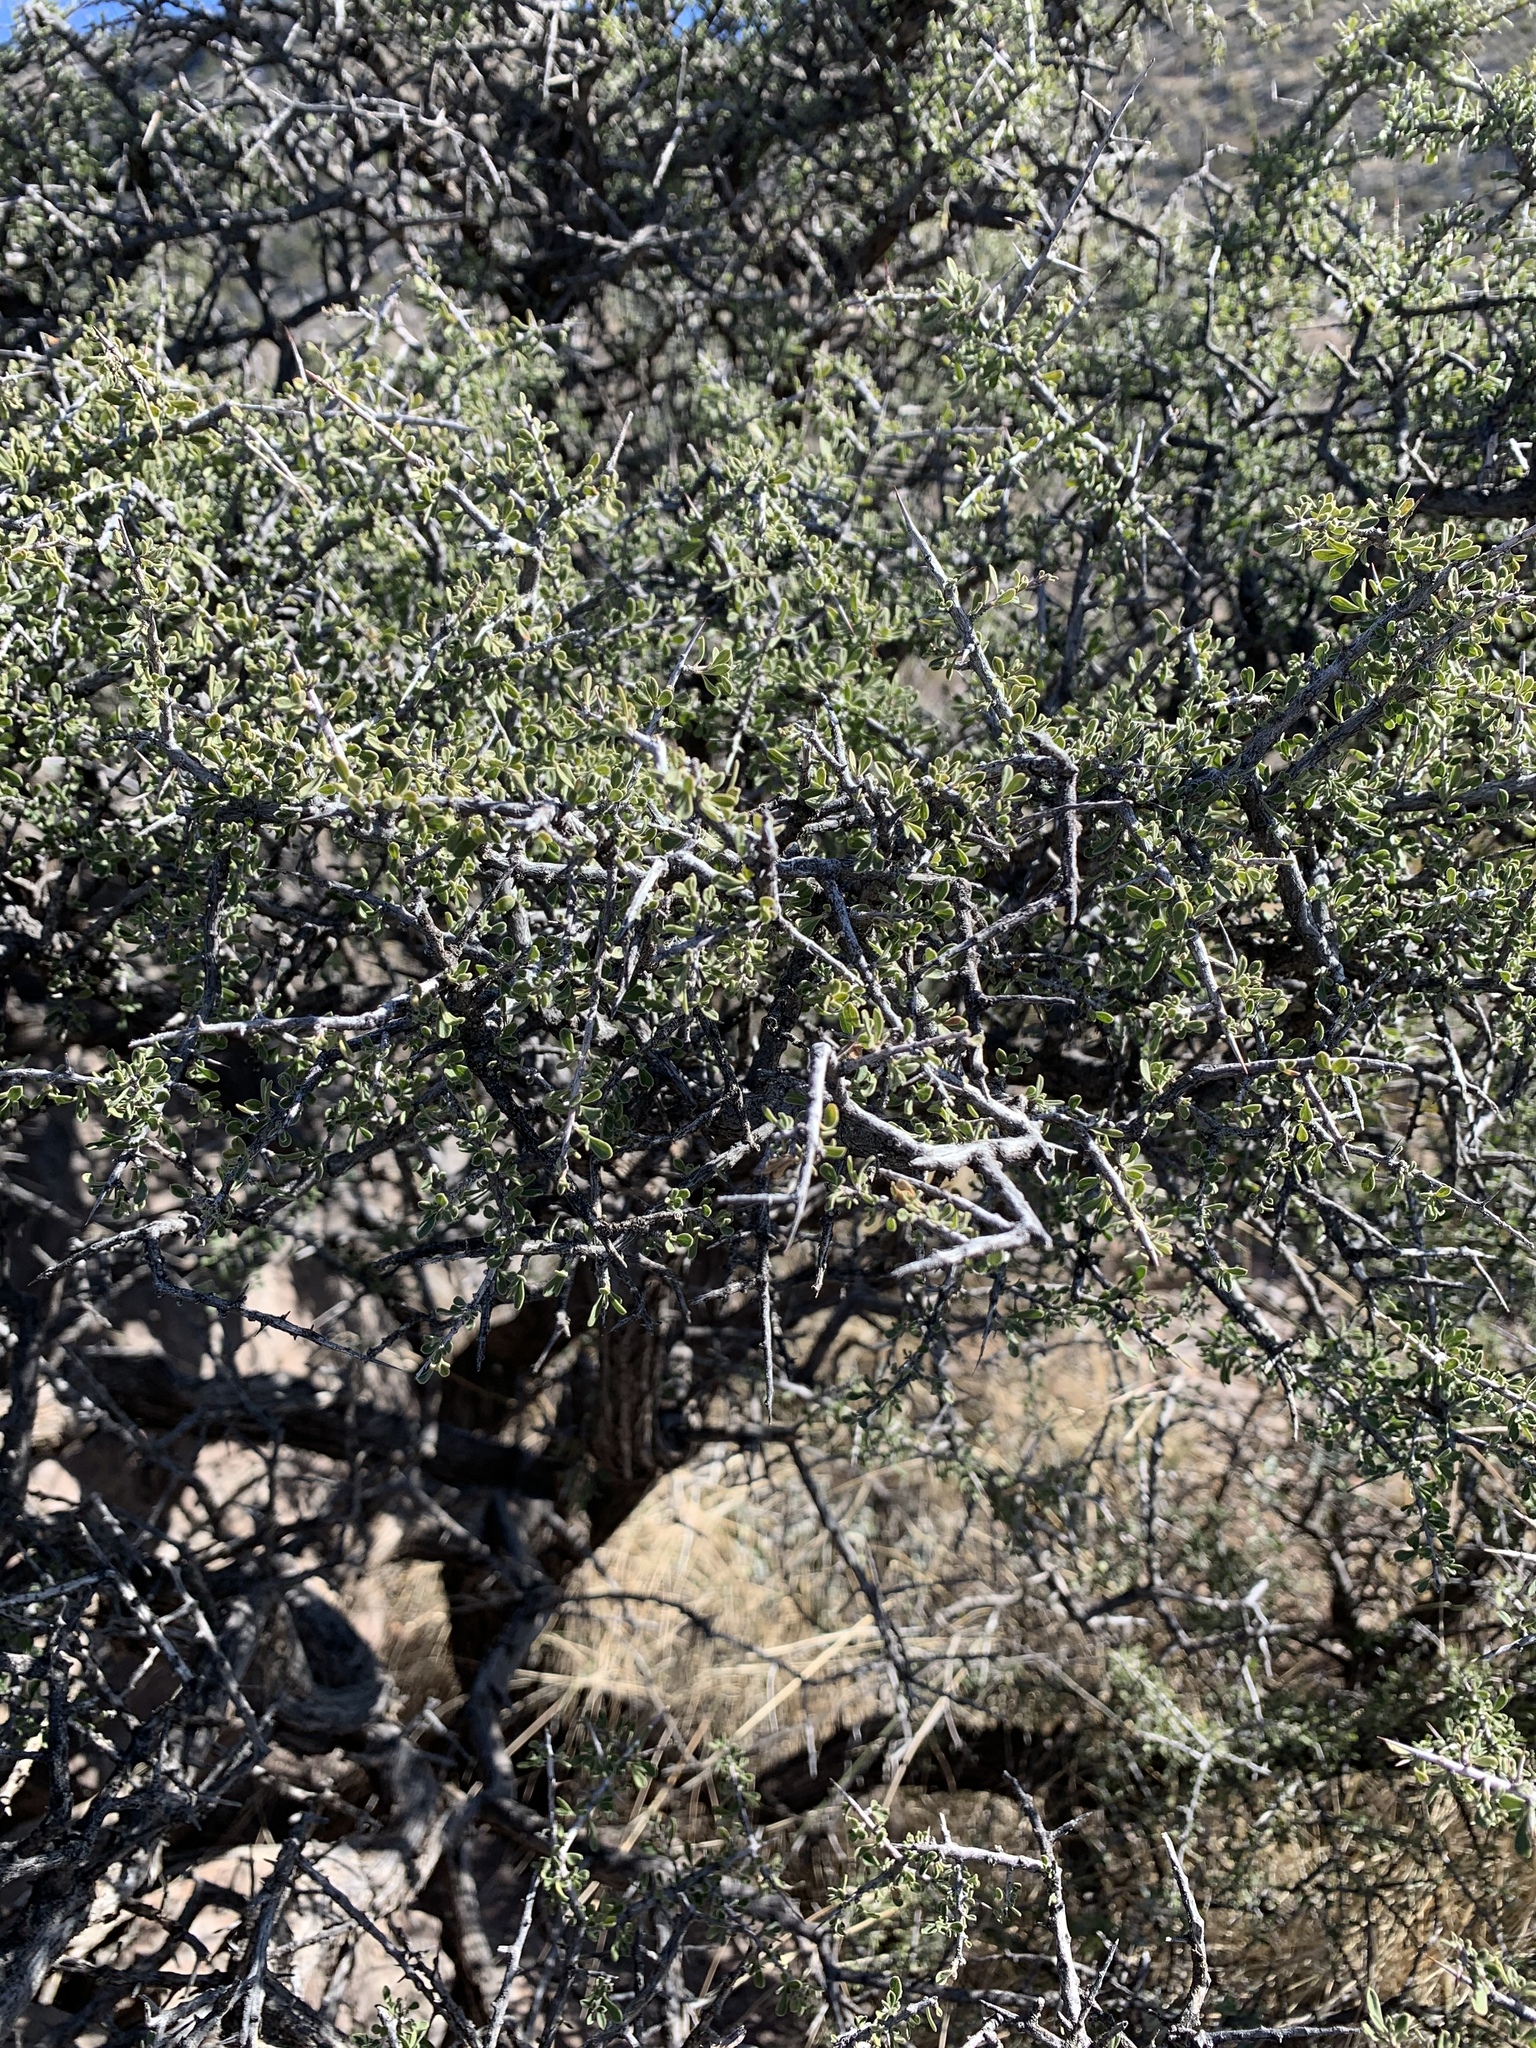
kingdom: Plantae
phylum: Tracheophyta
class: Magnoliopsida
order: Rosales
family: Rhamnaceae
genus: Condalia
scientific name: Condalia warnockii
